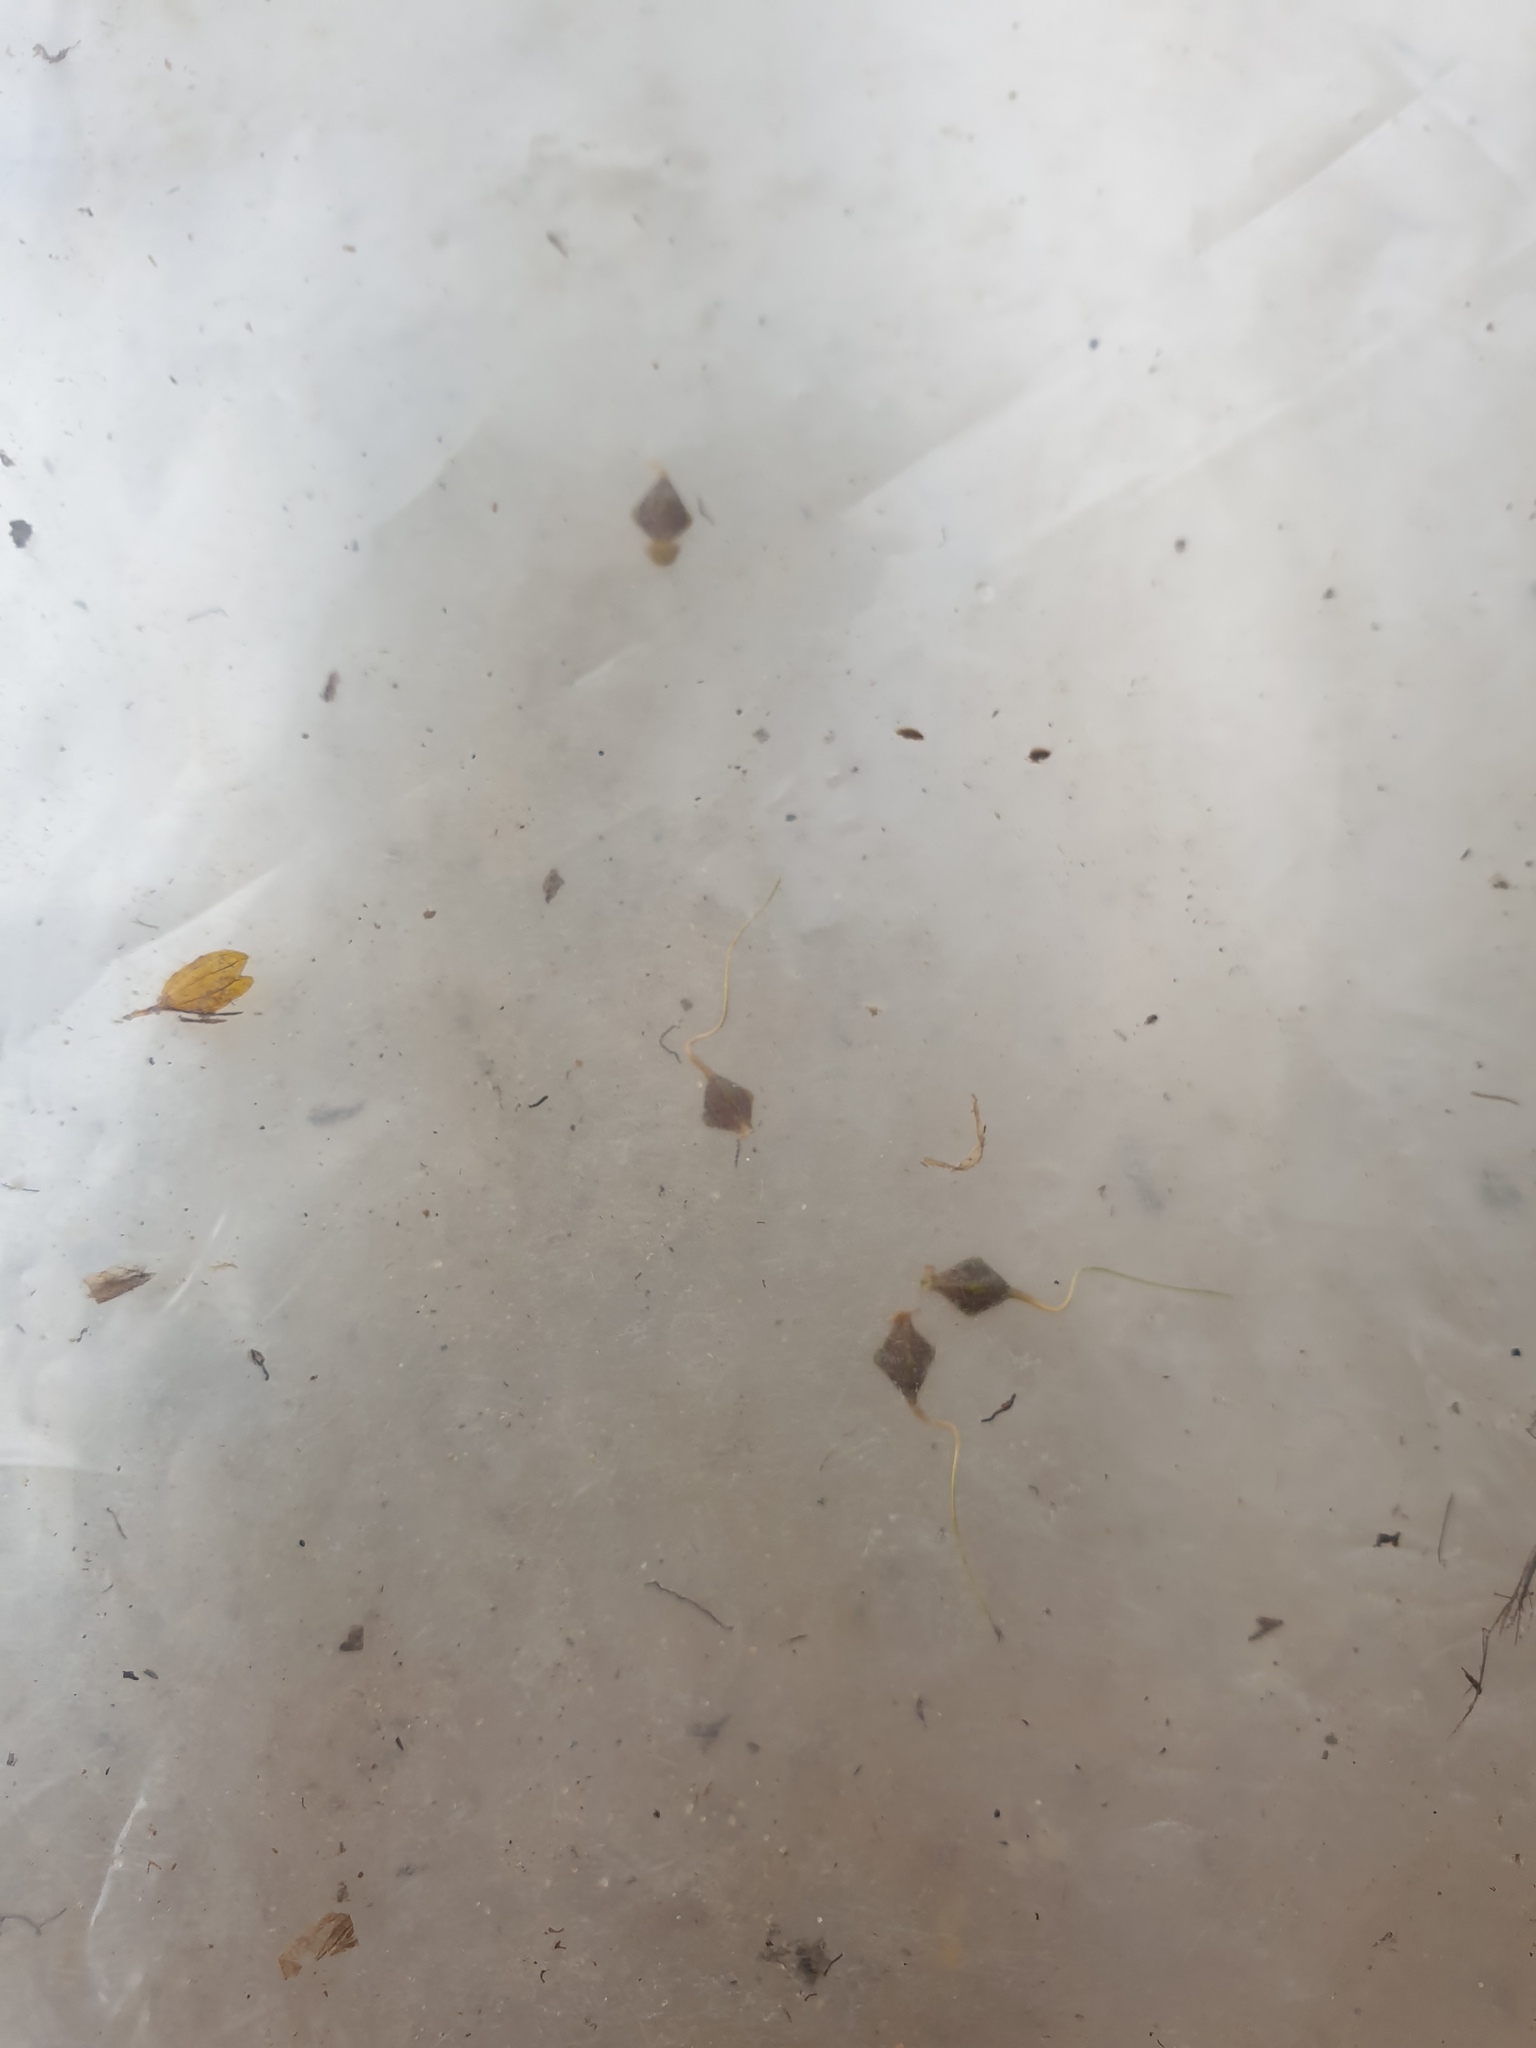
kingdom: Plantae
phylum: Tracheophyta
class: Liliopsida
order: Poales
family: Cyperaceae
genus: Carex
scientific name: Carex lupuliformis
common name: False hop sedge
